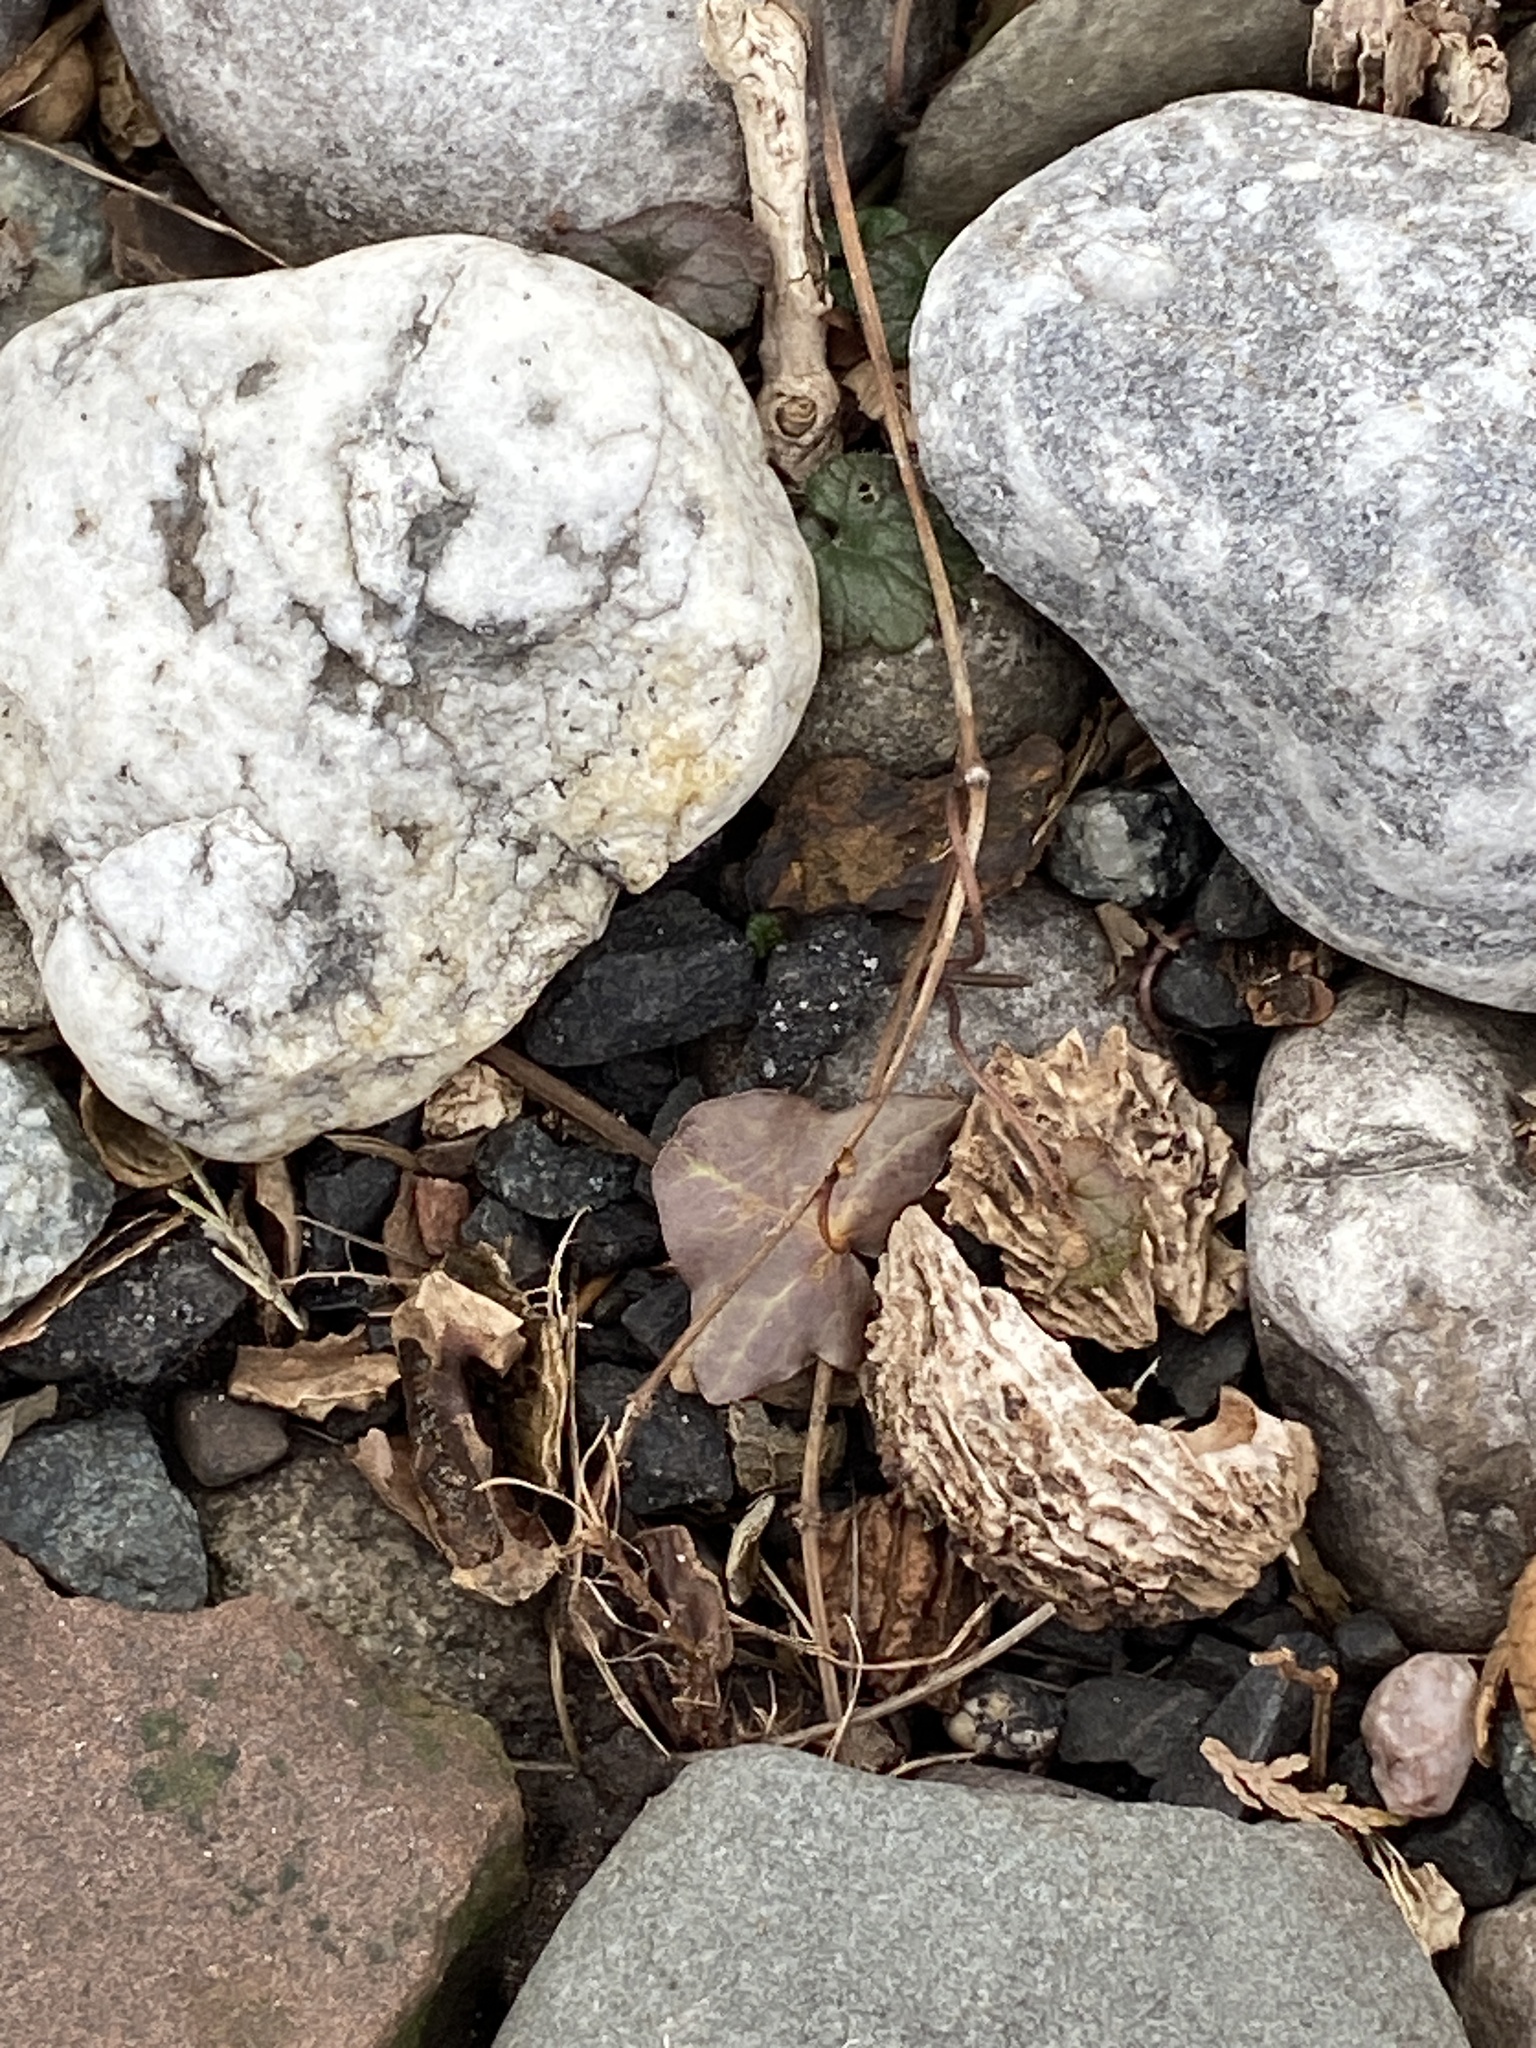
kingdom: Plantae
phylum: Tracheophyta
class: Magnoliopsida
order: Fagales
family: Juglandaceae
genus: Juglans
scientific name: Juglans nigra
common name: Black walnut
